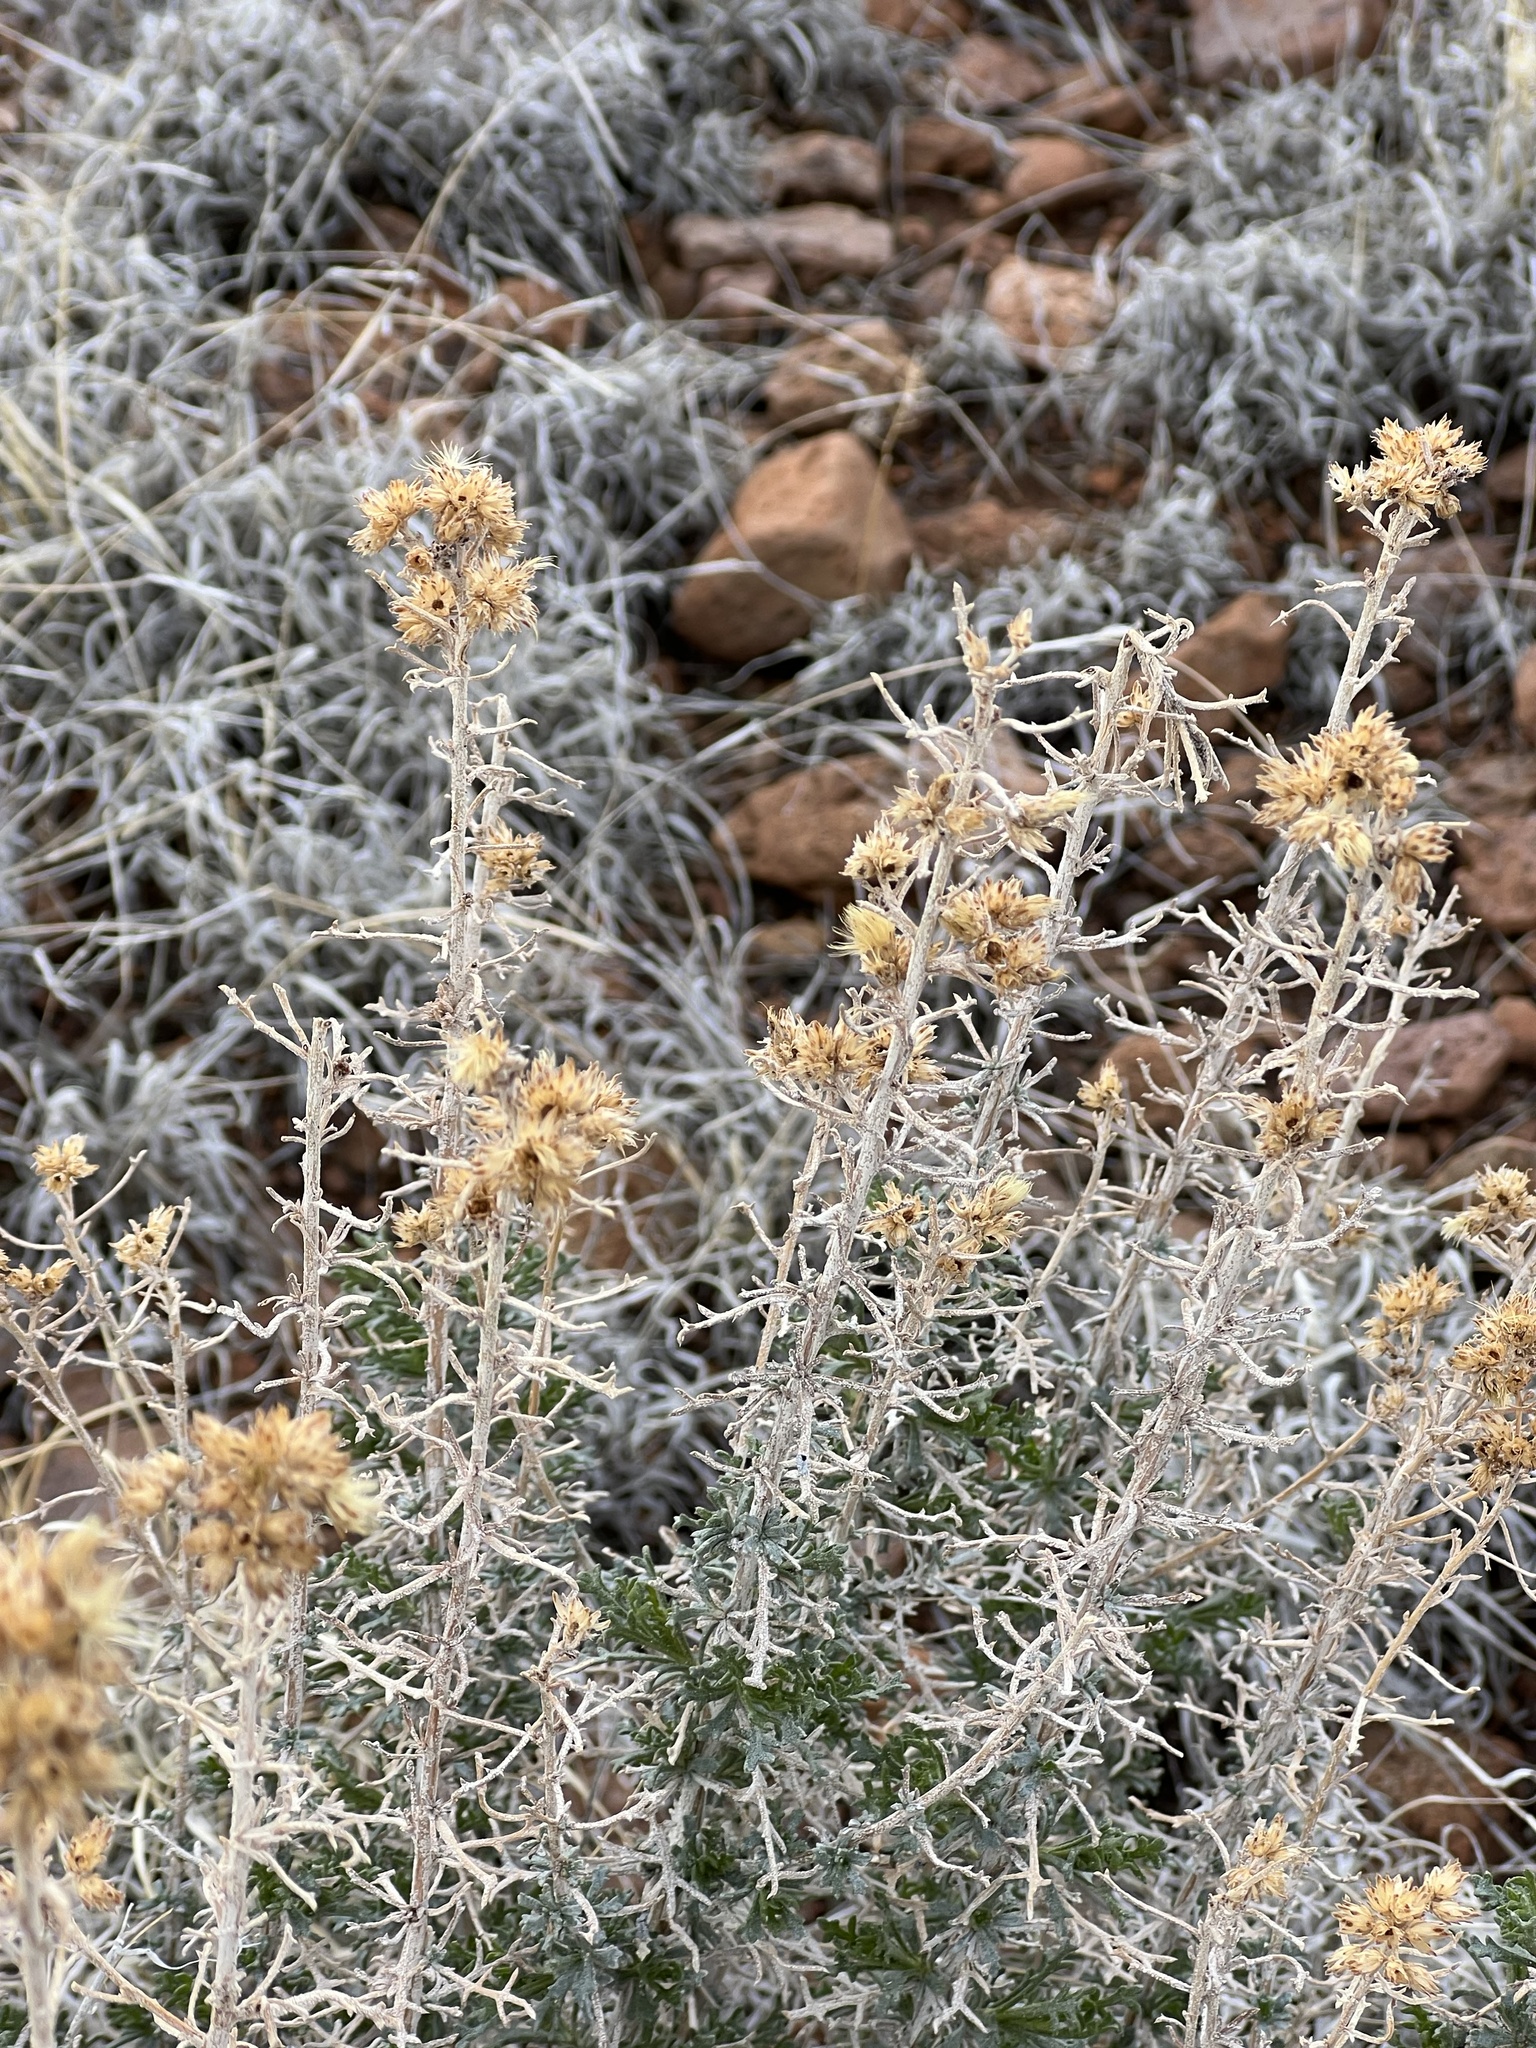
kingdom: Plantae
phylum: Tracheophyta
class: Magnoliopsida
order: Asterales
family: Asteraceae
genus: Isocoma
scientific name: Isocoma tenuisecta
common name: Burroweed
